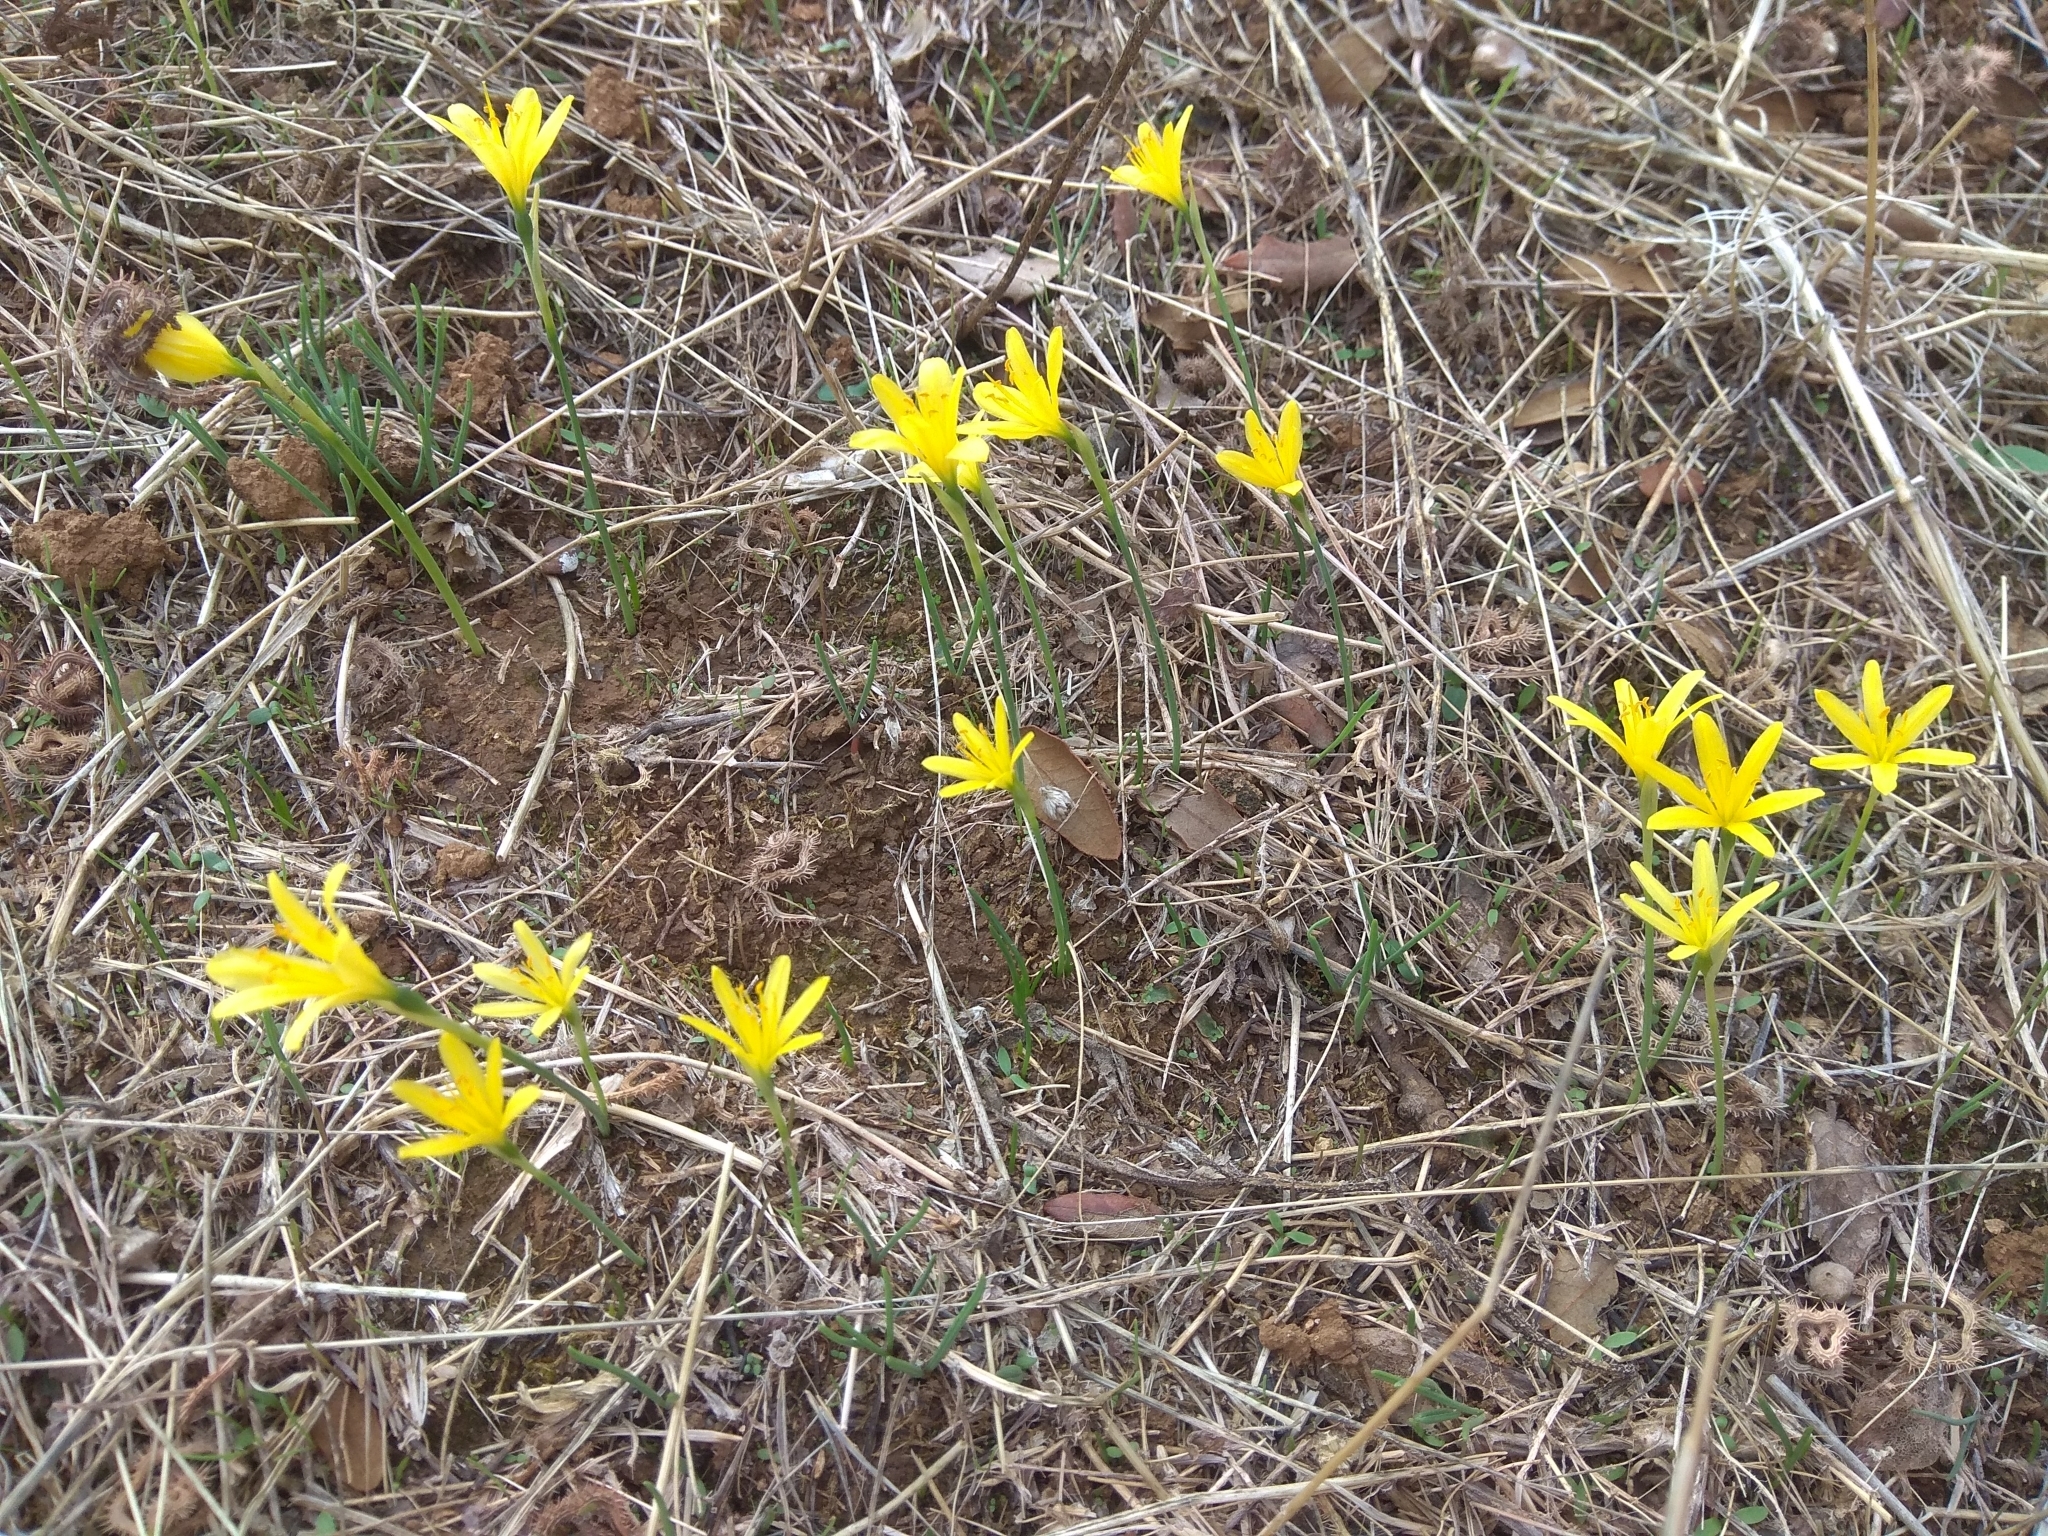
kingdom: Plantae
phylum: Tracheophyta
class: Liliopsida
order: Asparagales
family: Amaryllidaceae
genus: Narcissus
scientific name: Narcissus cavanillesii
